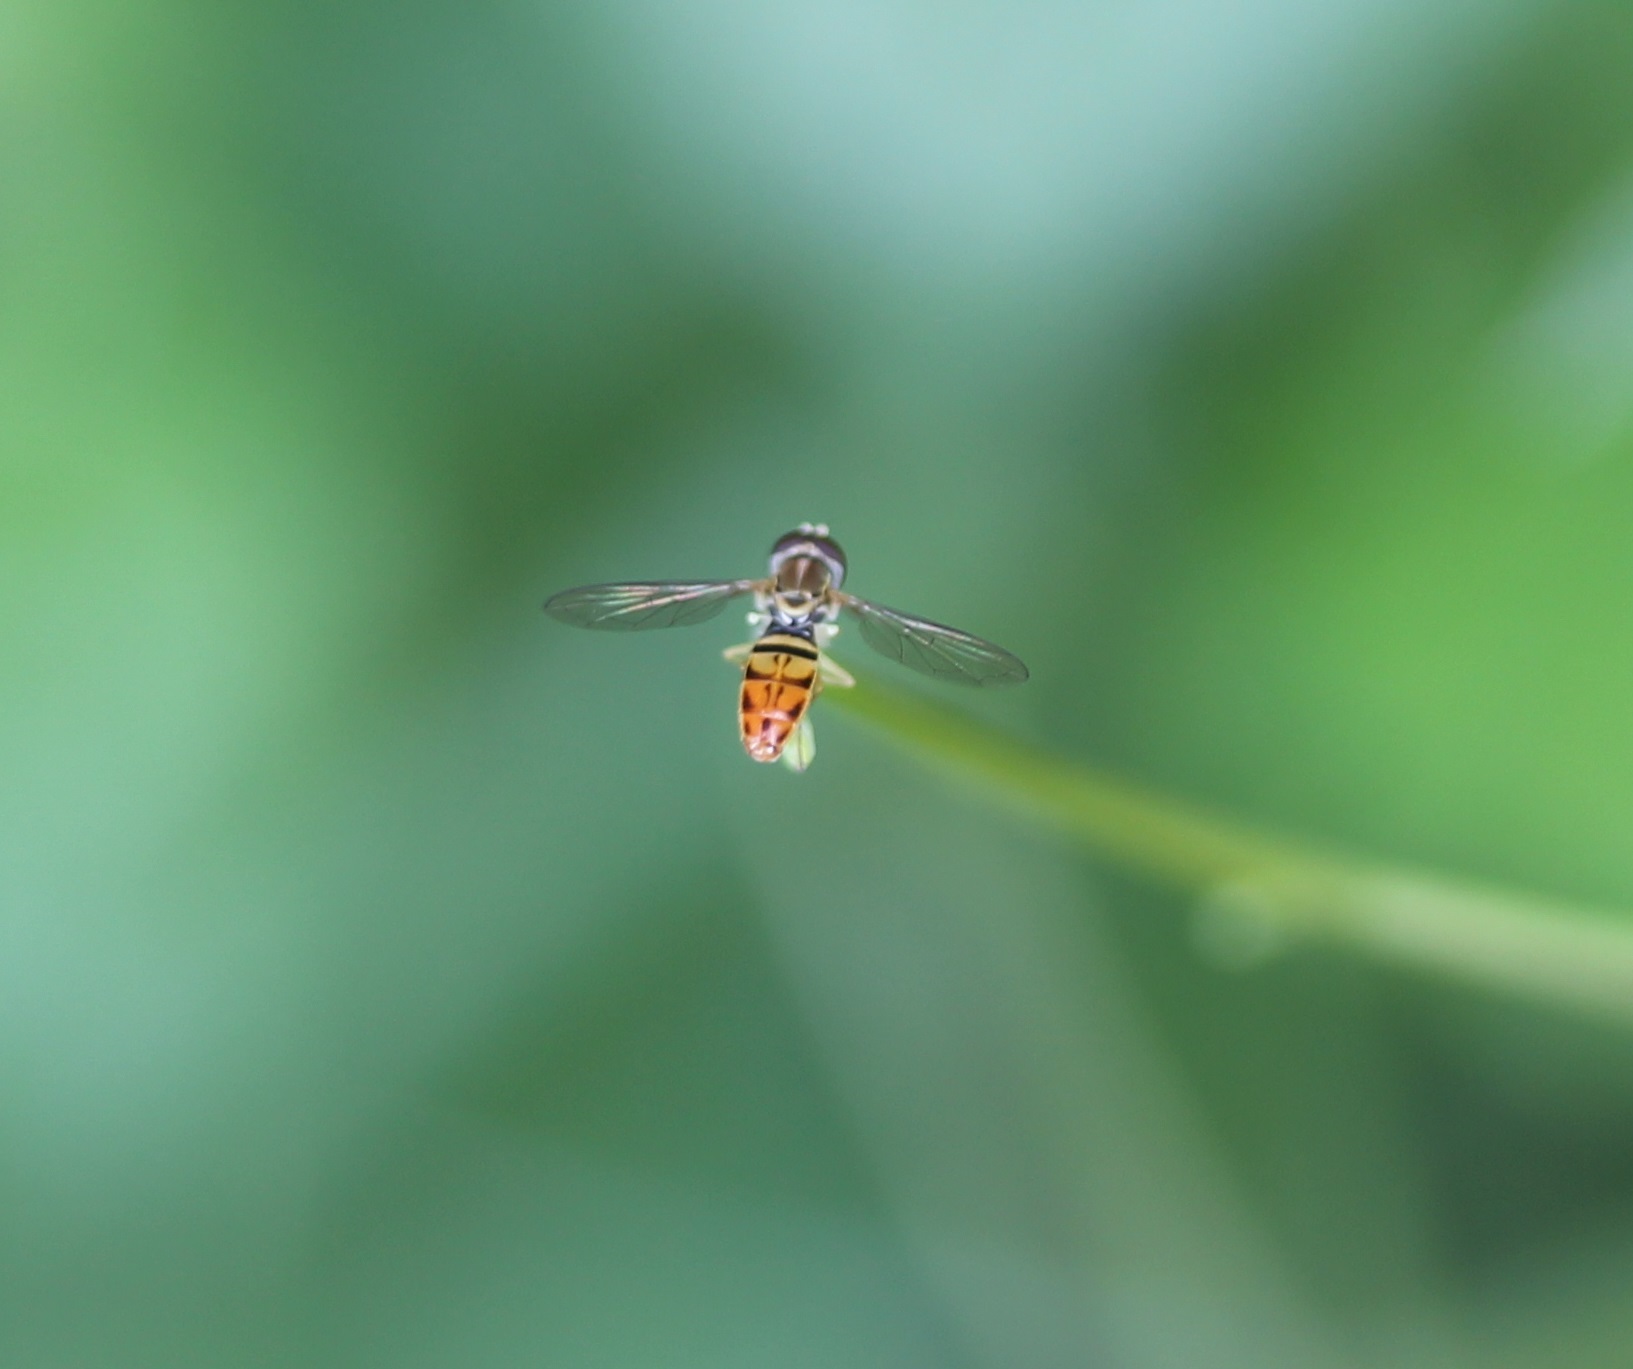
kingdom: Animalia
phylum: Arthropoda
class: Insecta
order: Diptera
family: Syrphidae
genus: Toxomerus
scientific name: Toxomerus marginatus
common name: Syrphid fly
